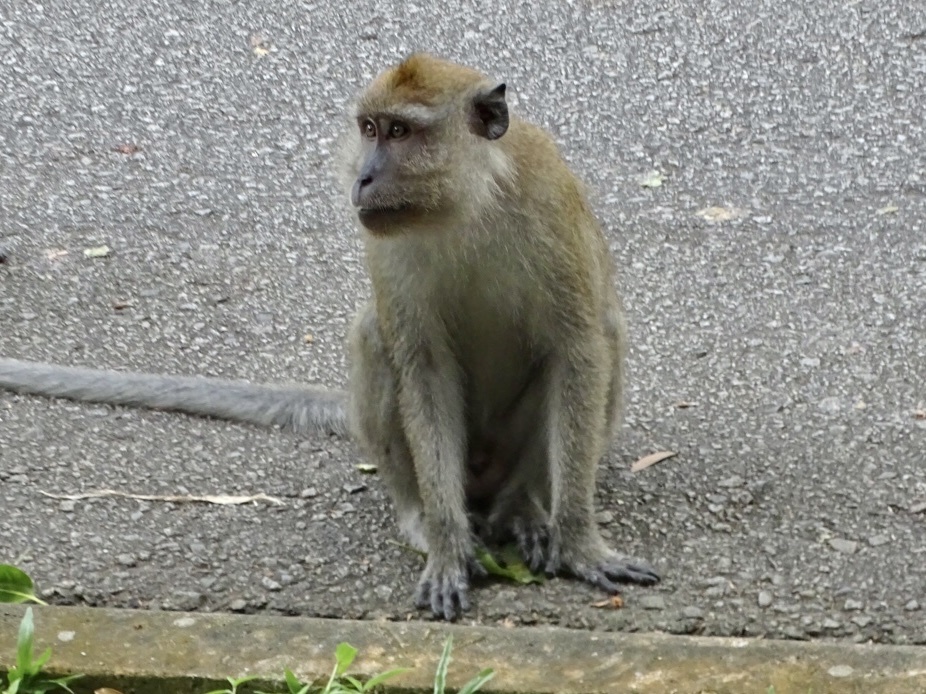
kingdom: Animalia
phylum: Chordata
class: Mammalia
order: Primates
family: Cercopithecidae
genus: Macaca
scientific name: Macaca fascicularis
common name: Crab-eating macaque
